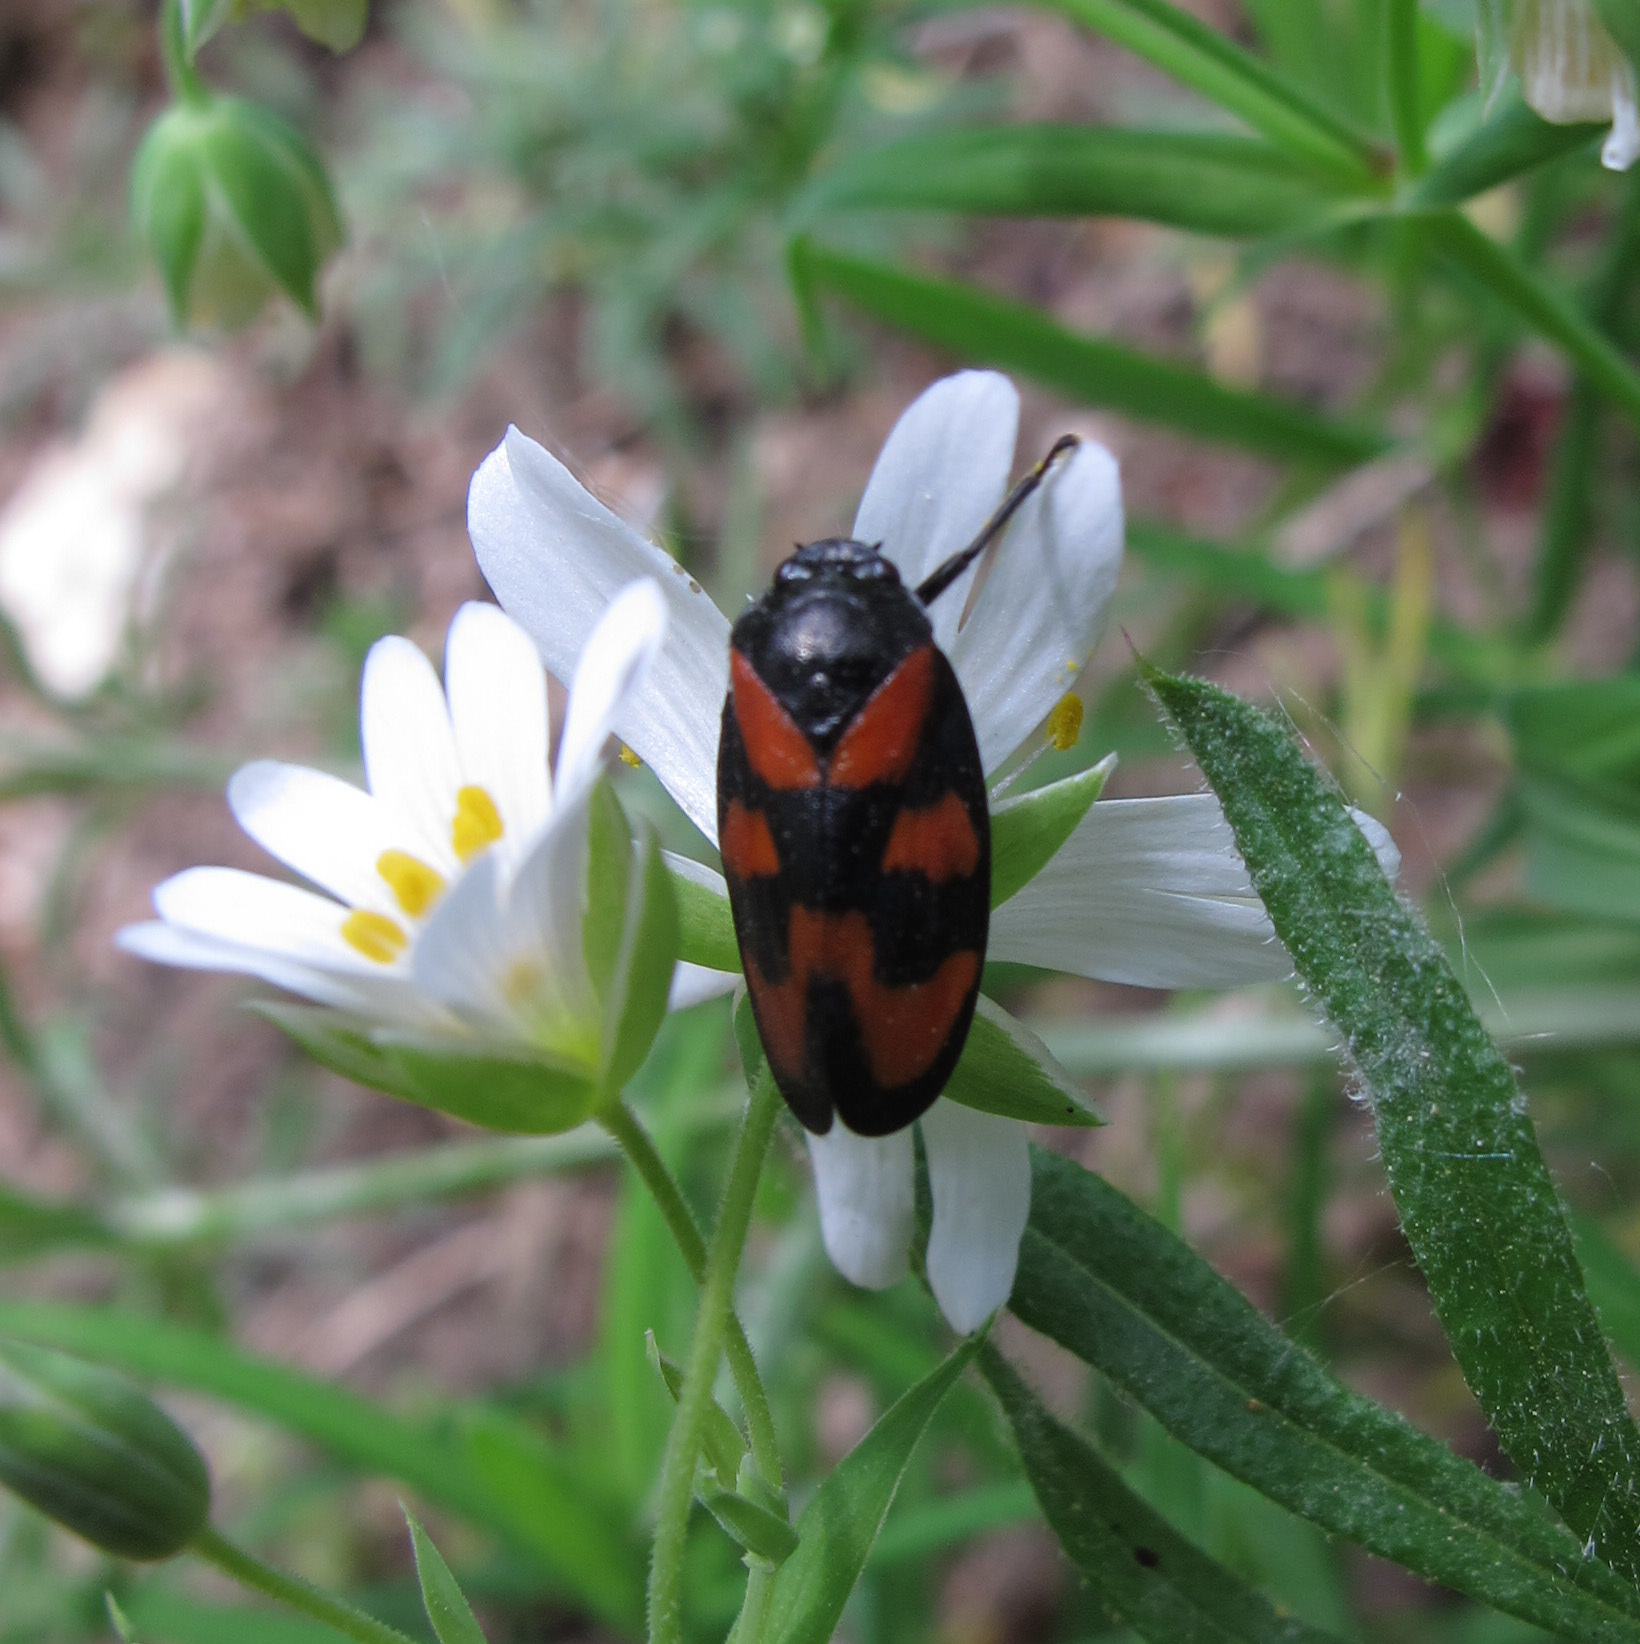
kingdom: Animalia
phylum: Arthropoda
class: Insecta
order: Hemiptera
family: Cercopidae
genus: Cercopis
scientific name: Cercopis vulnerata
